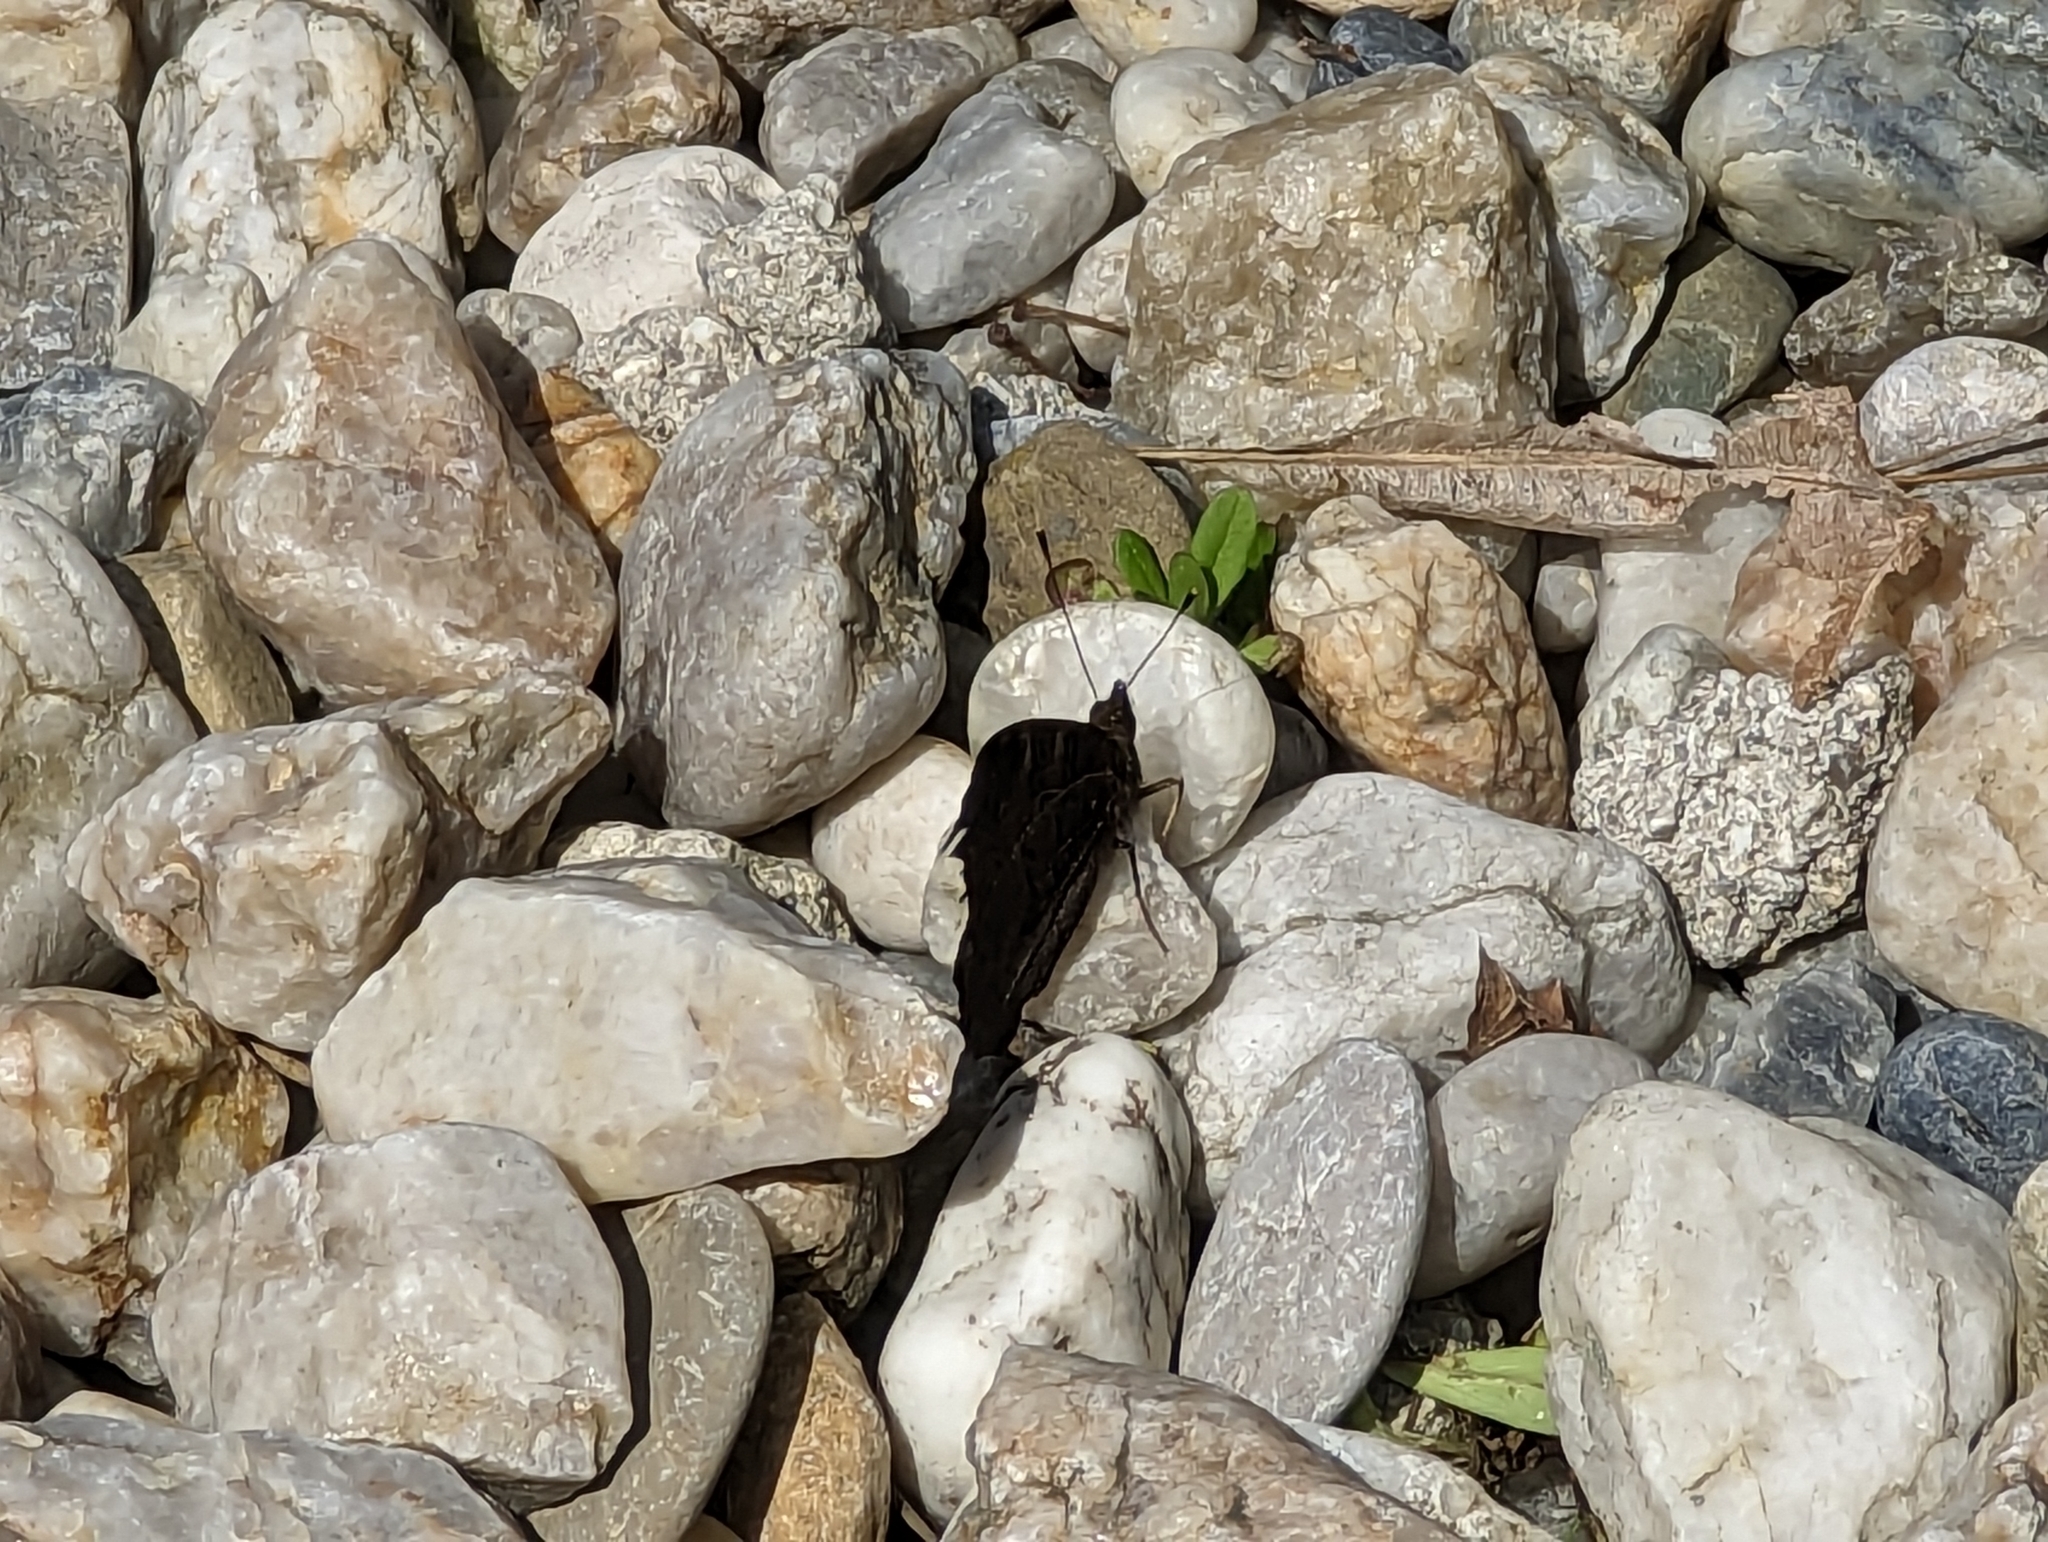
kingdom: Animalia
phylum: Arthropoda
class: Insecta
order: Lepidoptera
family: Nymphalidae
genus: Aglais
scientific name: Aglais io
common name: Peacock
